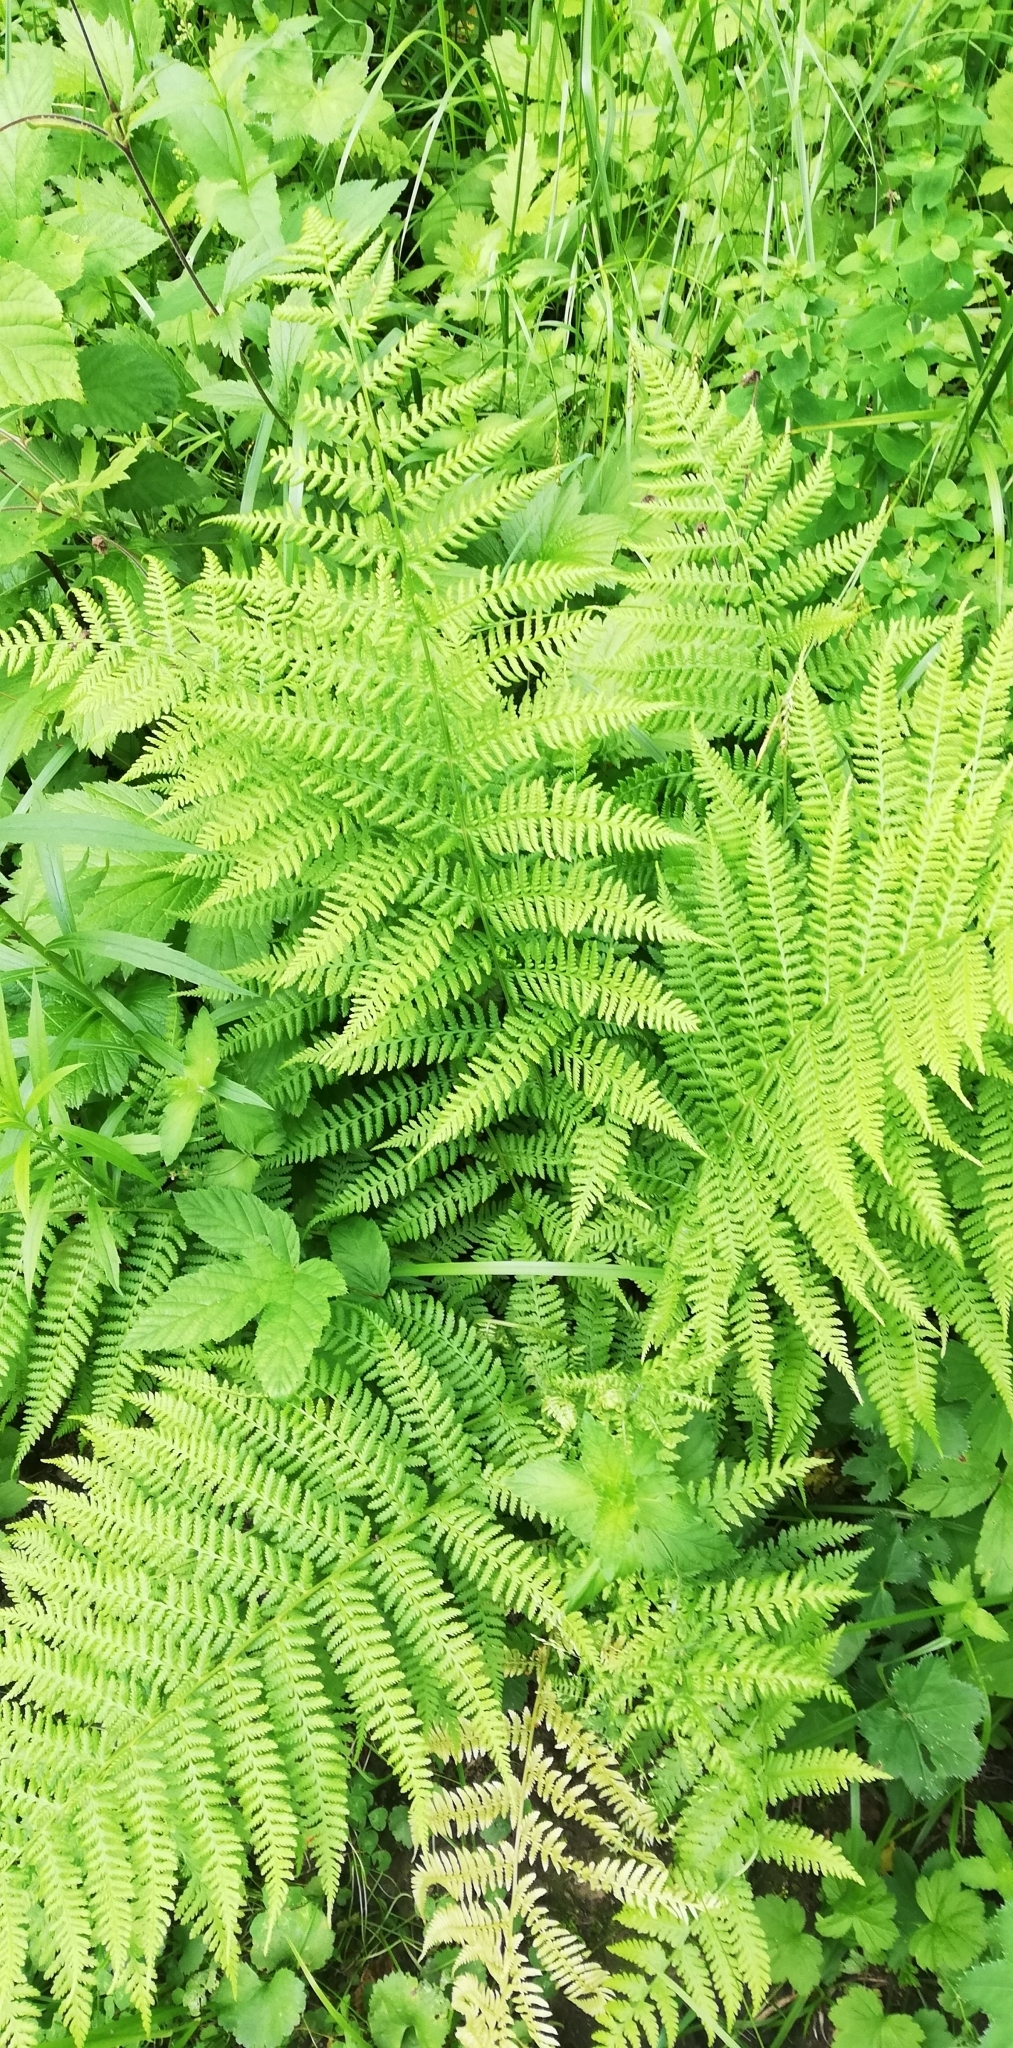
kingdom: Plantae
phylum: Tracheophyta
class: Polypodiopsida
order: Polypodiales
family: Athyriaceae
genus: Athyrium
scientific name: Athyrium filix-femina
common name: Lady fern
